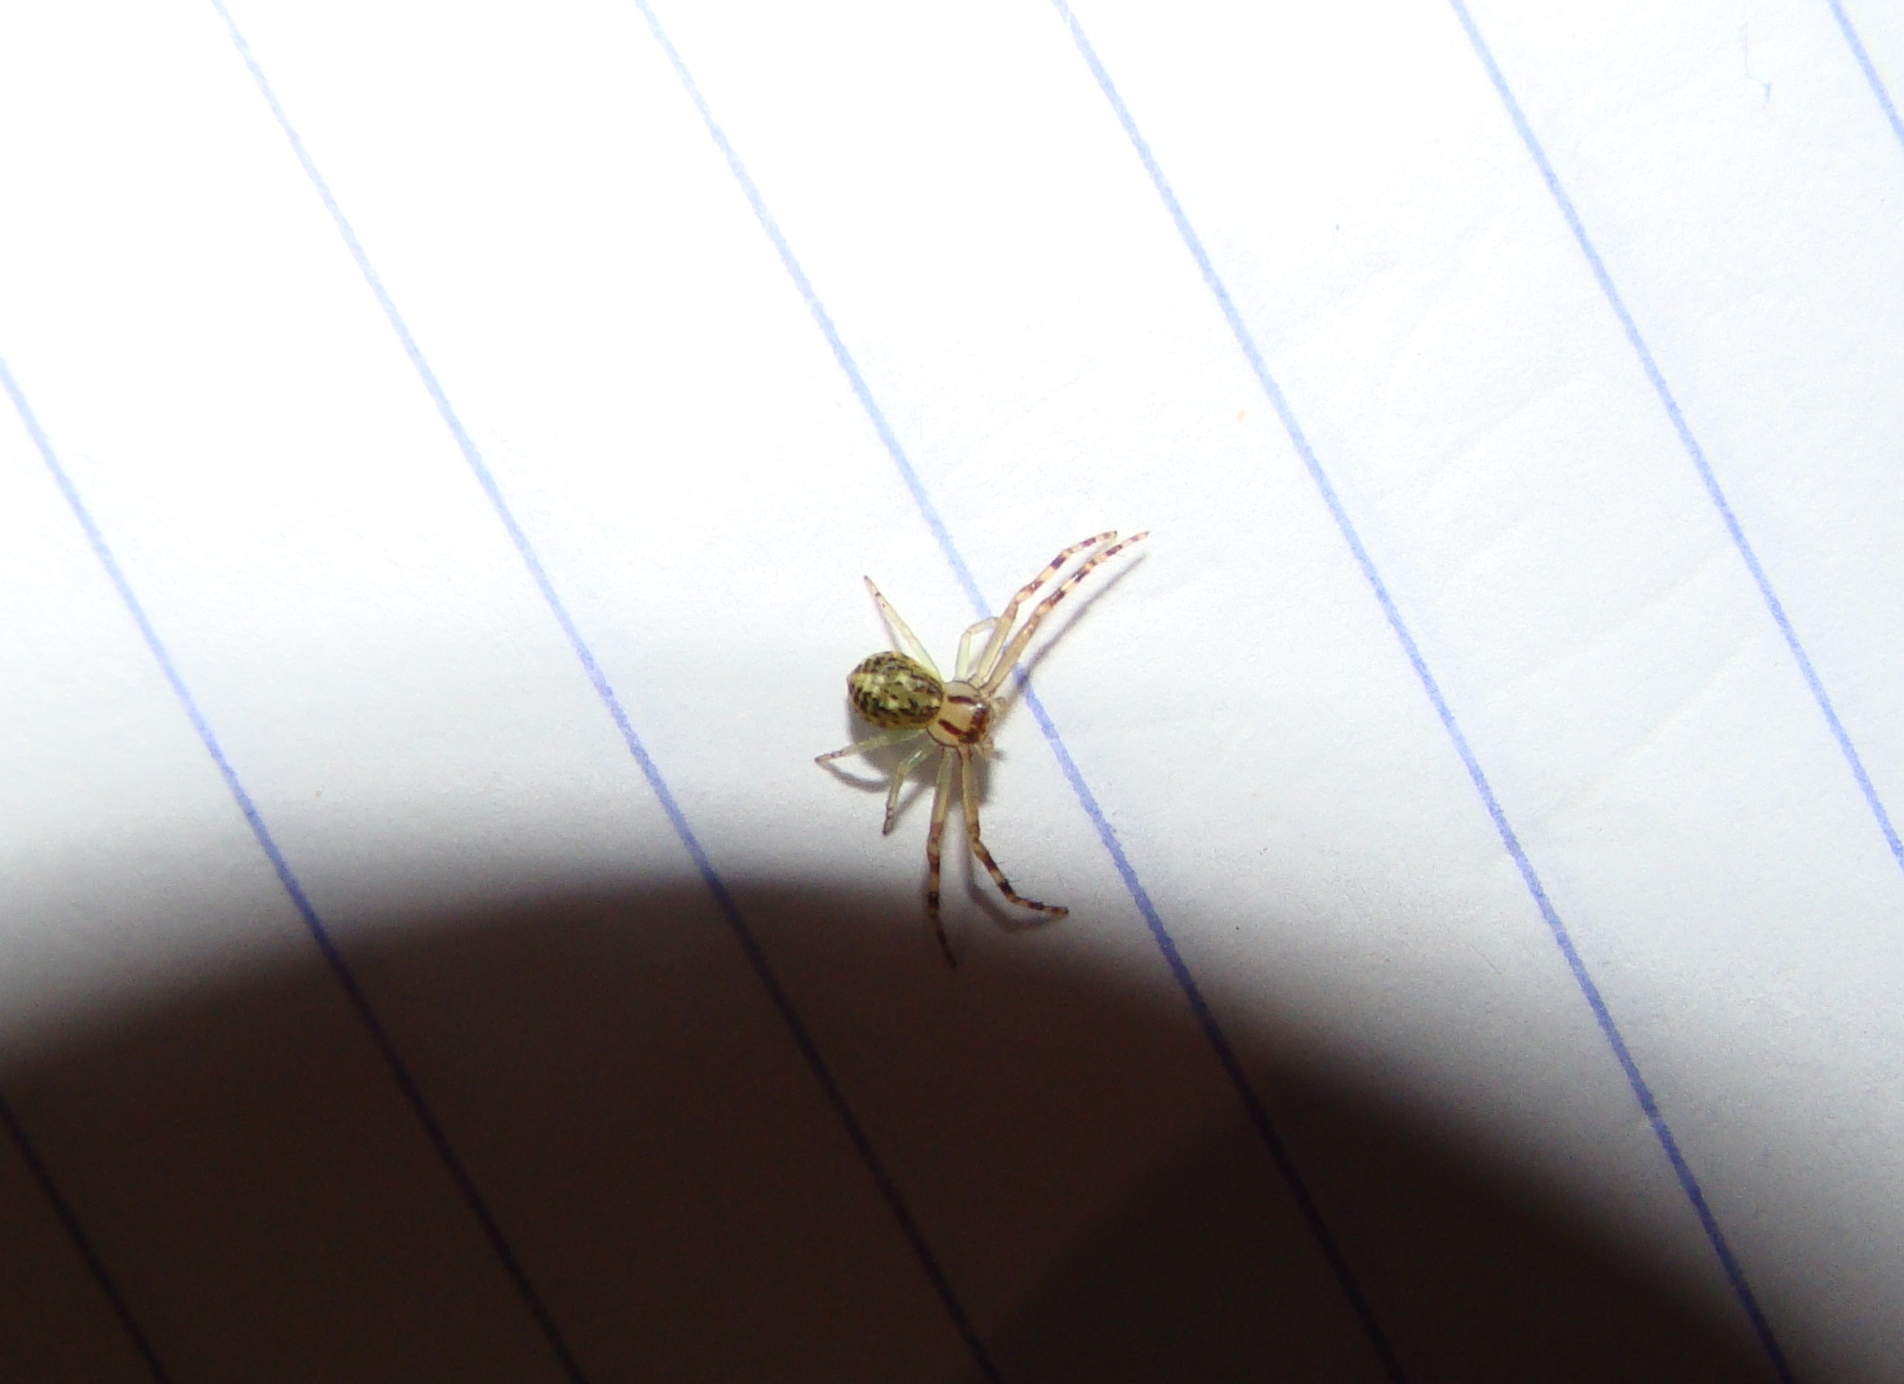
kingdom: Animalia
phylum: Arthropoda
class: Arachnida
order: Araneae
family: Thomisidae
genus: Diaea
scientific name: Diaea ambara
